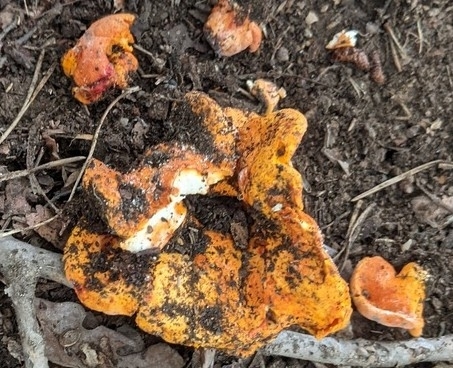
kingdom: Fungi
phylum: Ascomycota
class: Sordariomycetes
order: Hypocreales
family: Hypocreaceae
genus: Hypomyces
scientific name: Hypomyces lactifluorum
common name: Lobster mushroom
